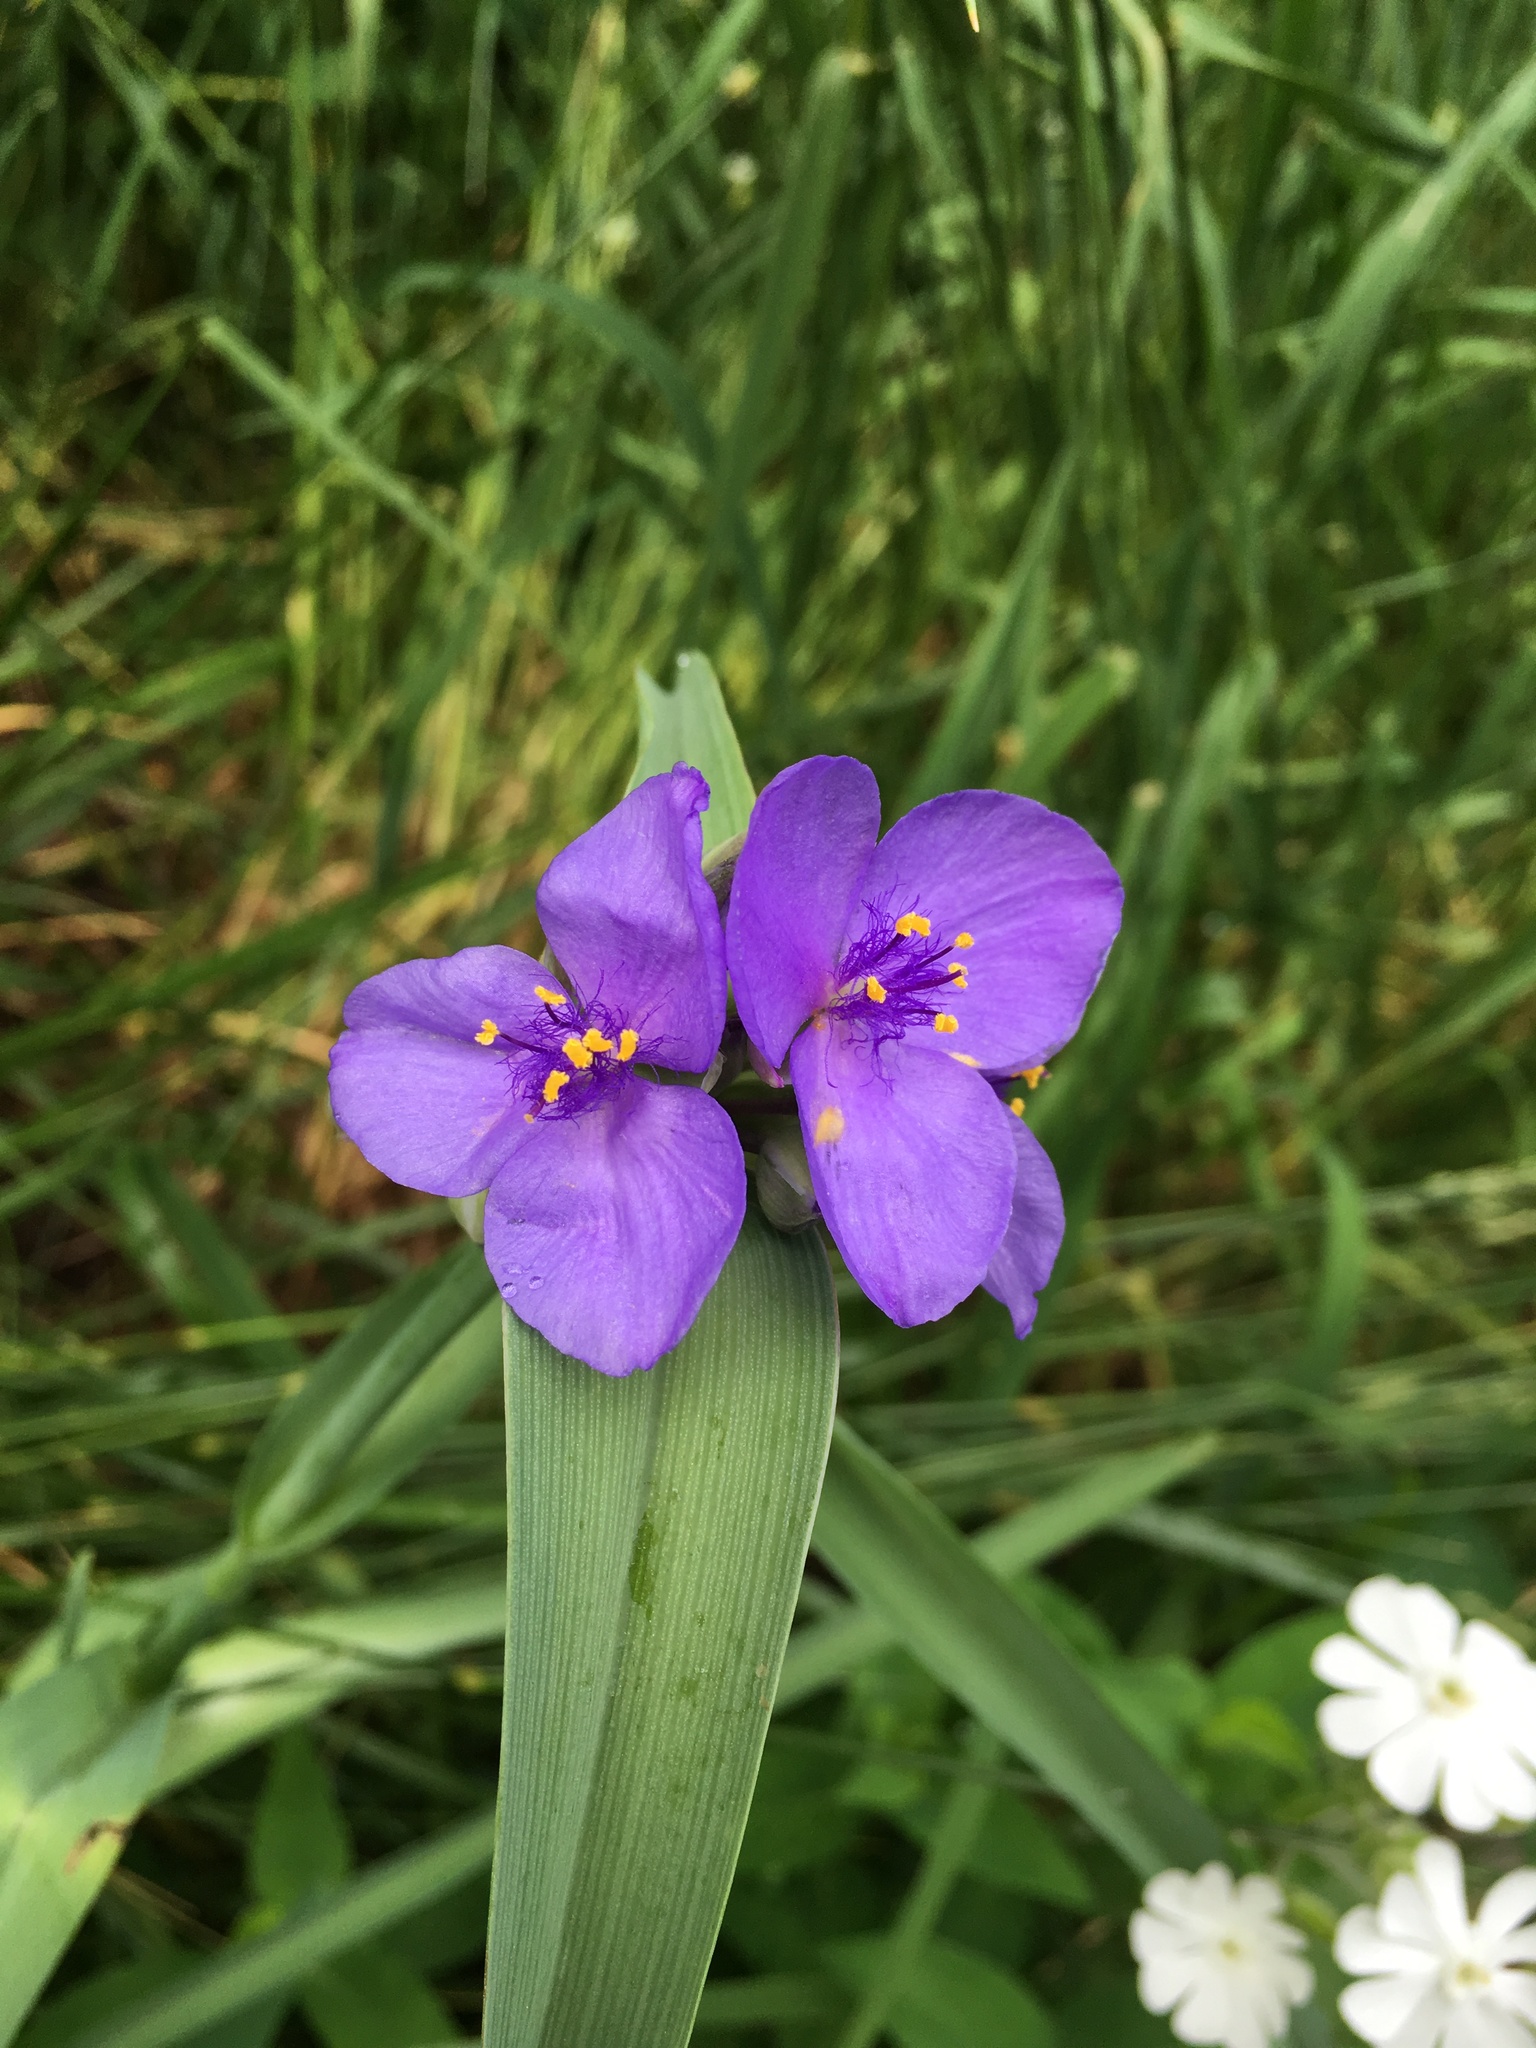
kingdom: Plantae
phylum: Tracheophyta
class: Liliopsida
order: Commelinales
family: Commelinaceae
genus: Tradescantia
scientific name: Tradescantia ohiensis
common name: Ohio spiderwort
